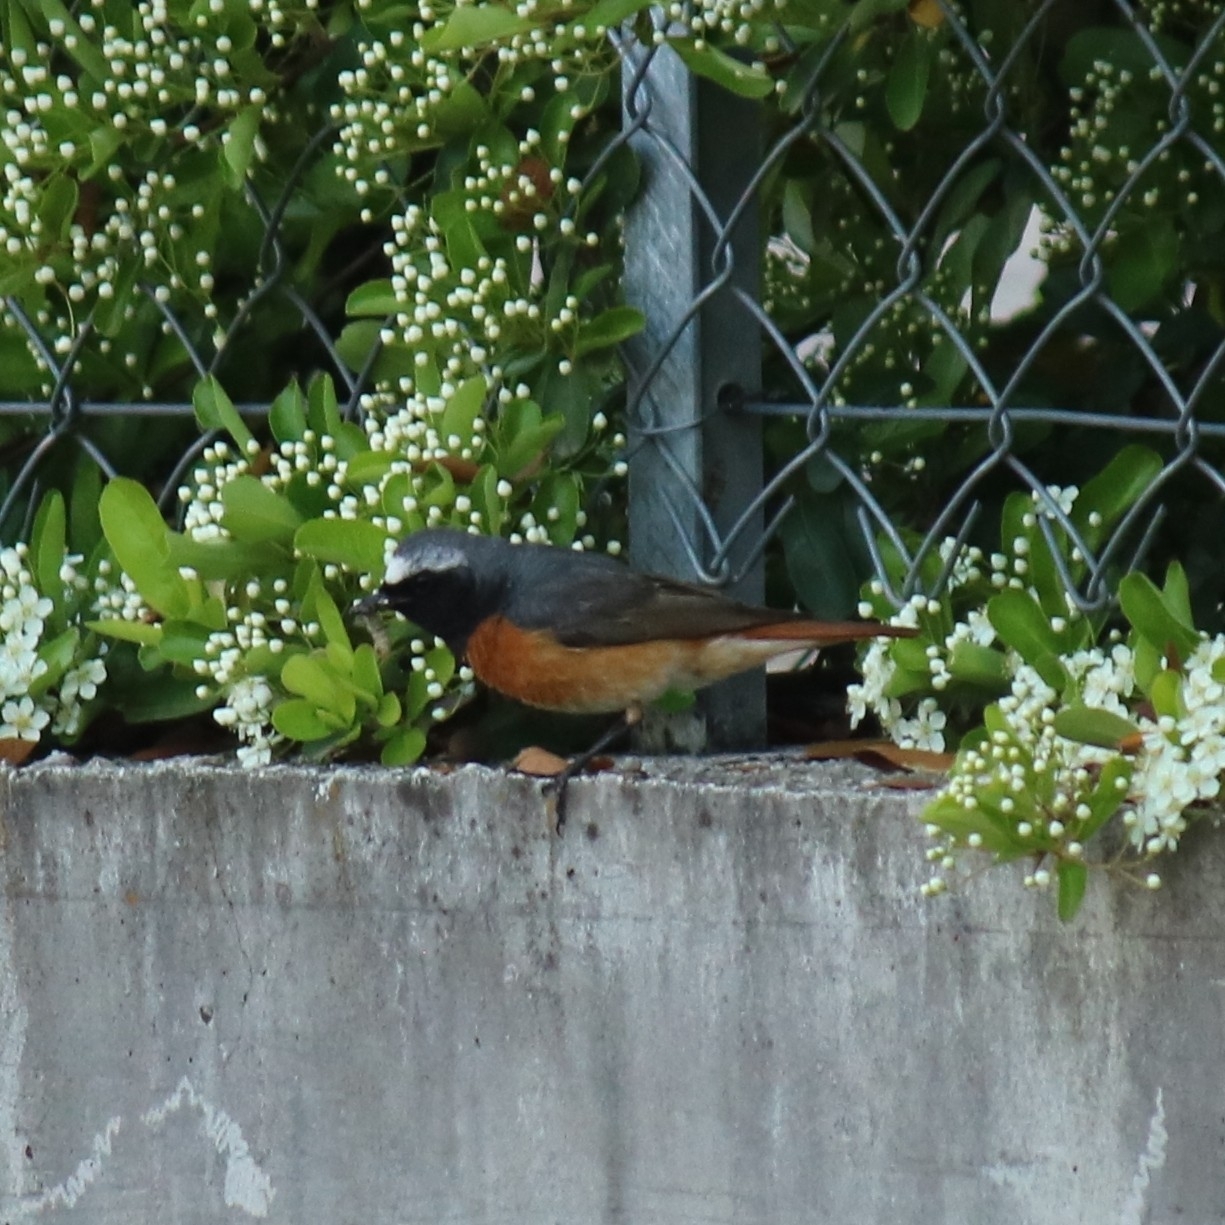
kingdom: Animalia
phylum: Chordata
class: Aves
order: Passeriformes
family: Muscicapidae
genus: Phoenicurus
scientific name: Phoenicurus phoenicurus
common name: Common redstart
